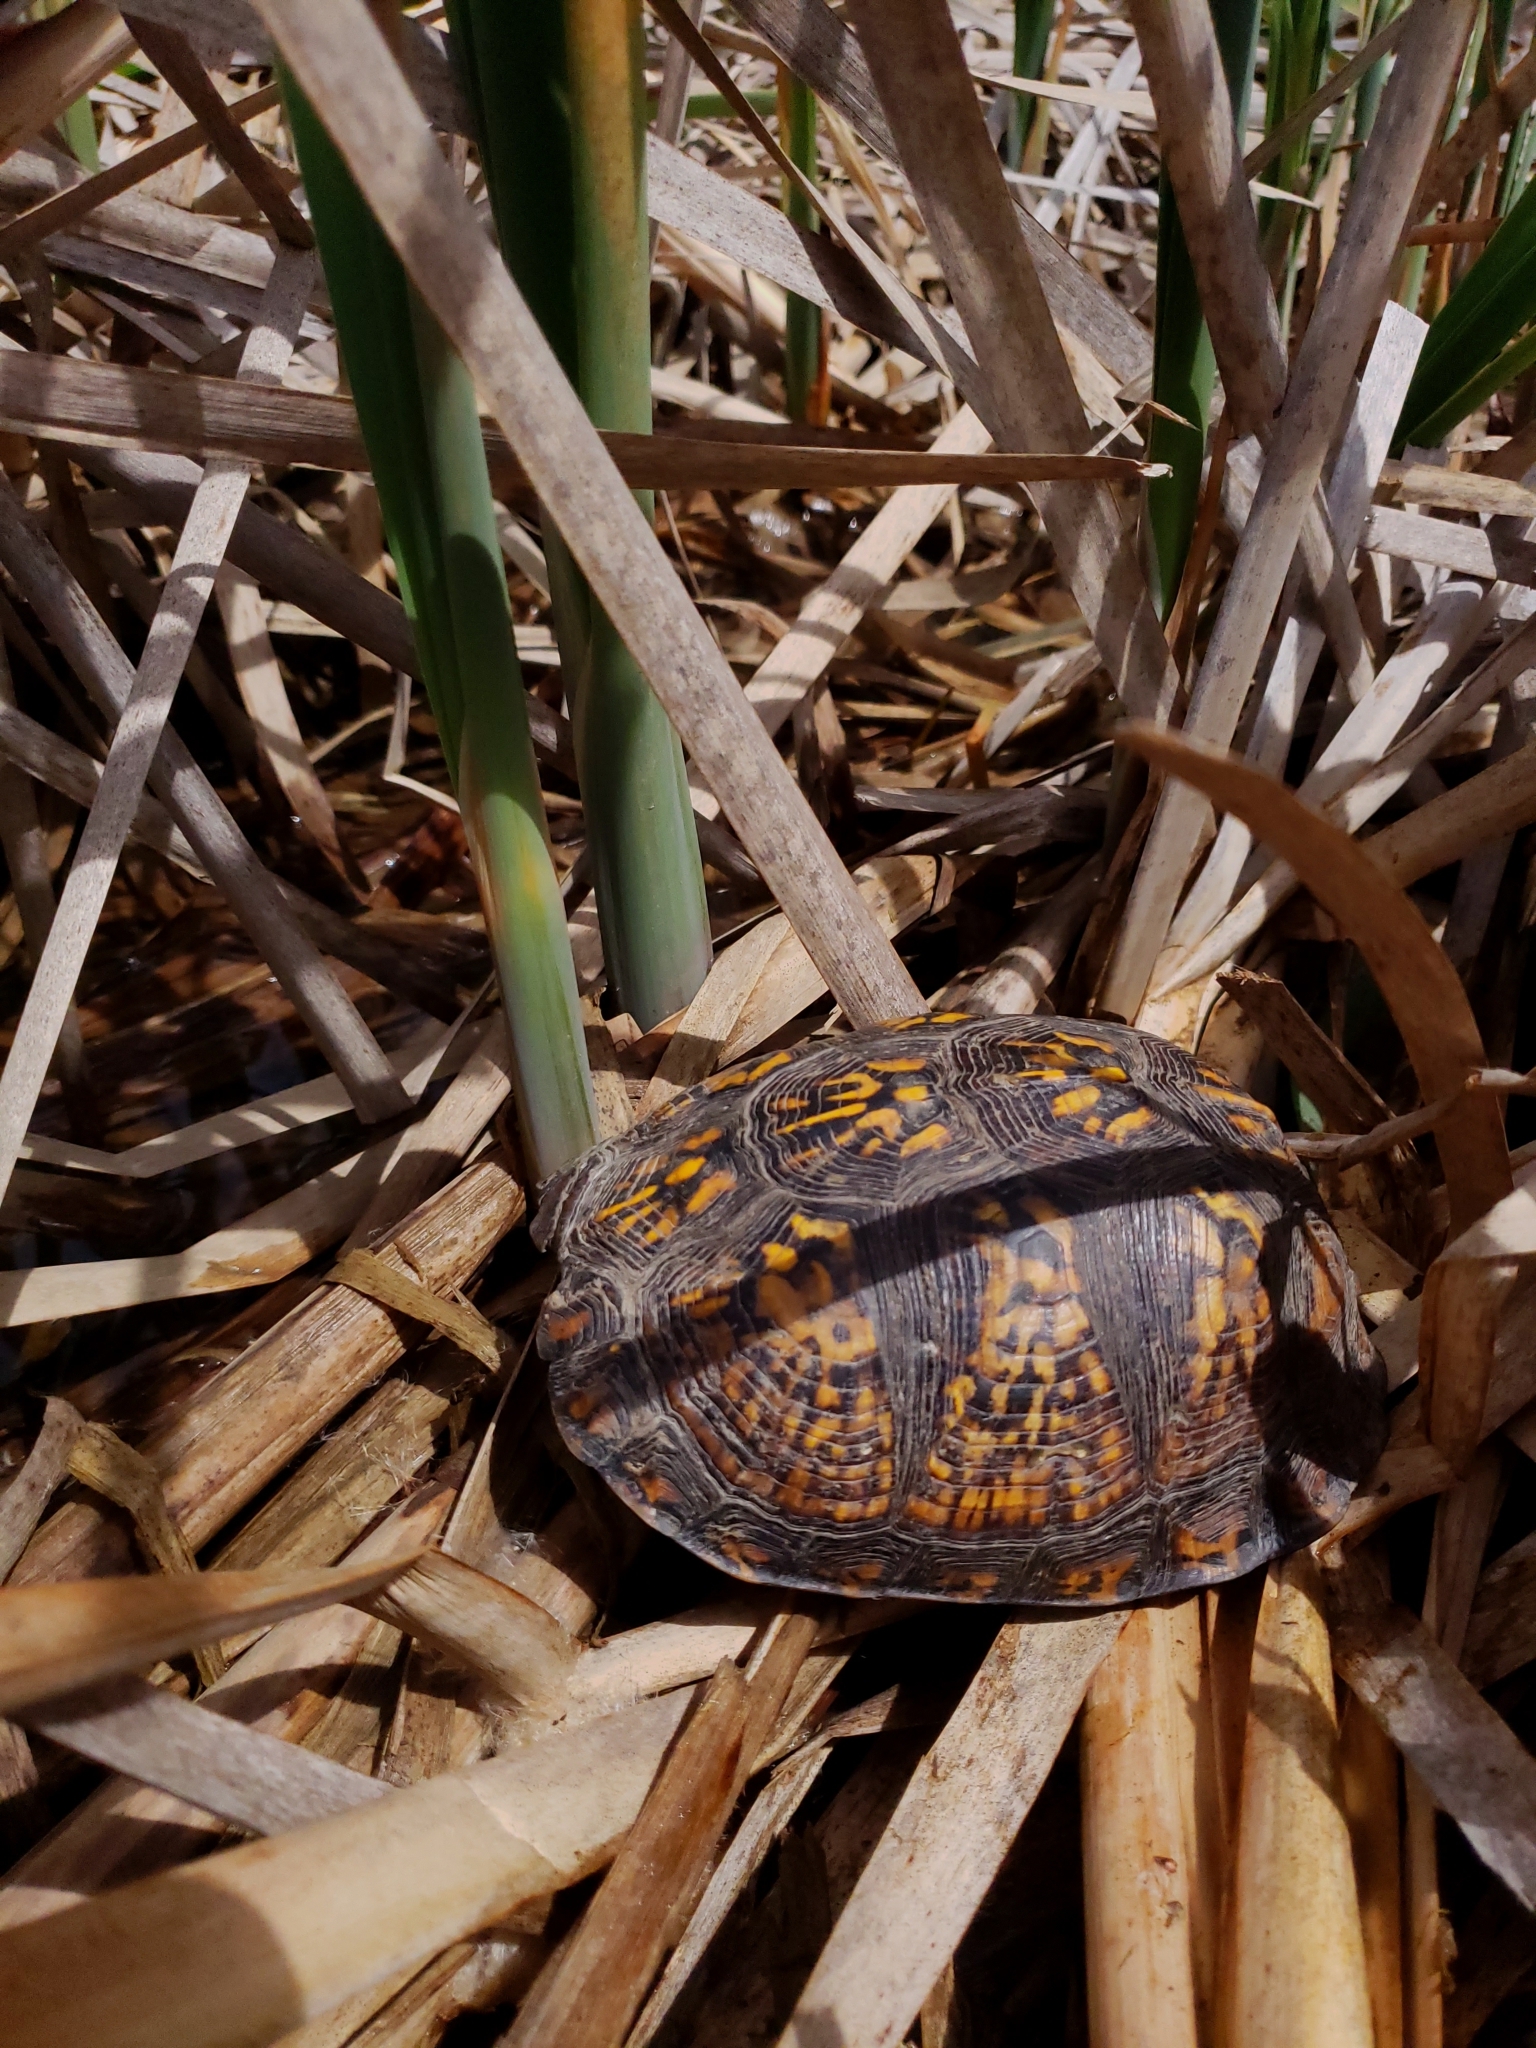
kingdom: Animalia
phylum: Chordata
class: Testudines
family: Emydidae
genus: Terrapene
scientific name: Terrapene carolina
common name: Common box turtle
